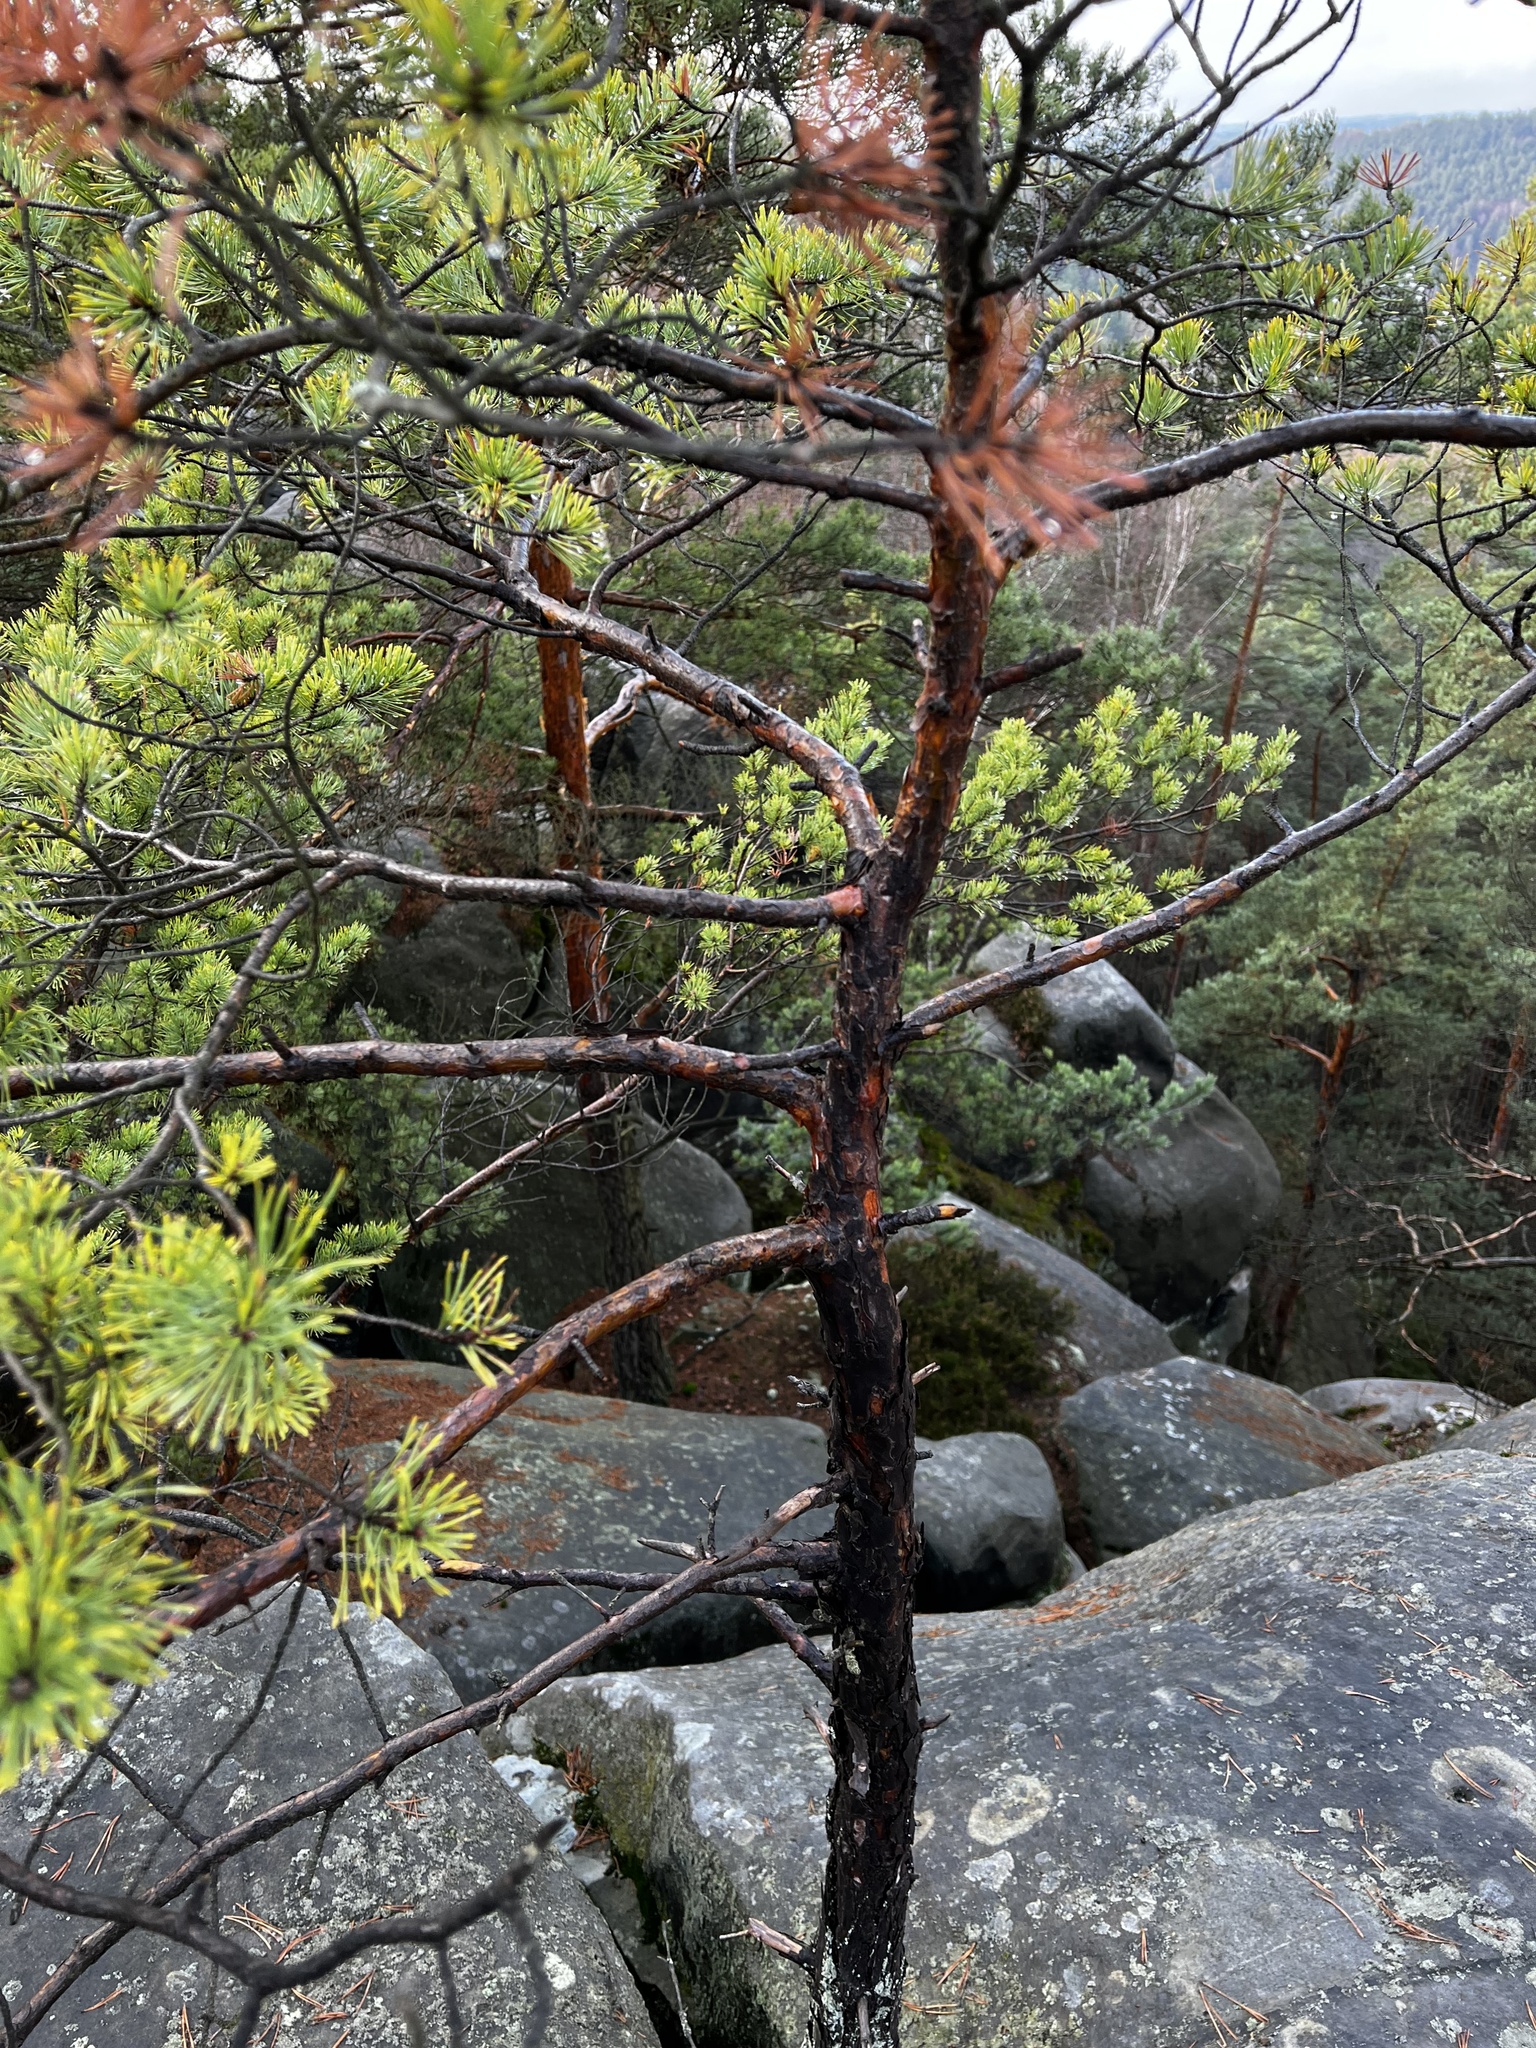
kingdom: Plantae
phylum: Tracheophyta
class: Pinopsida
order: Pinales
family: Pinaceae
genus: Pinus
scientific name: Pinus sylvestris
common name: Scots pine
